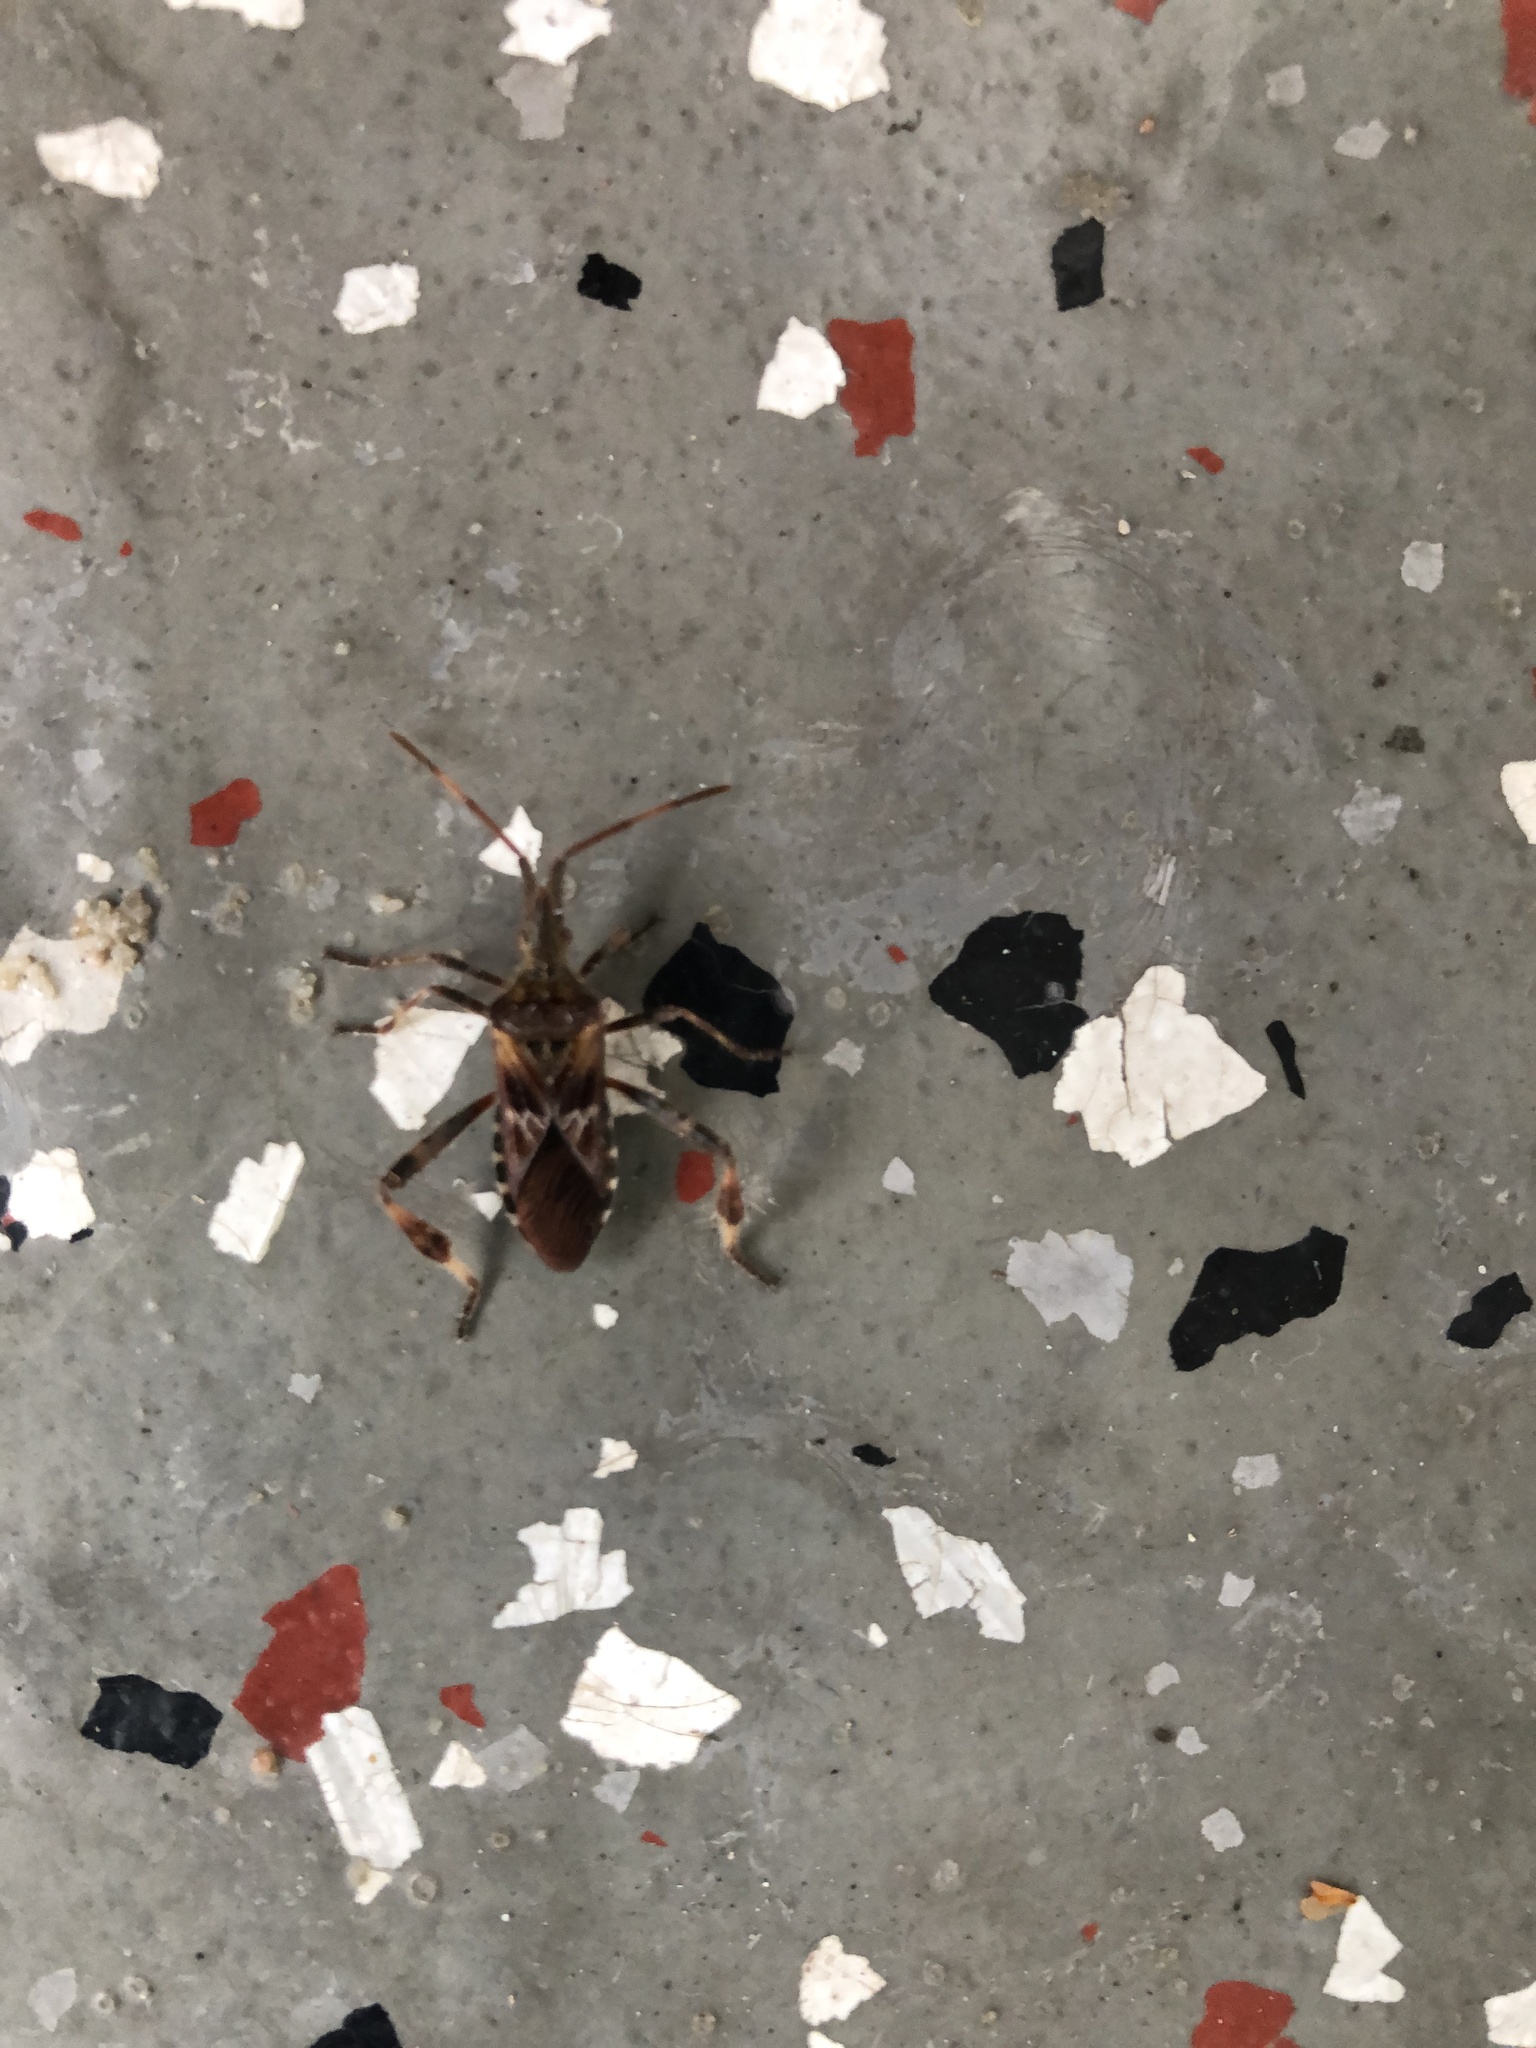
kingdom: Animalia
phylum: Arthropoda
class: Insecta
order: Hemiptera
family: Coreidae
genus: Leptoglossus
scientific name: Leptoglossus occidentalis
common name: Western conifer-seed bug
